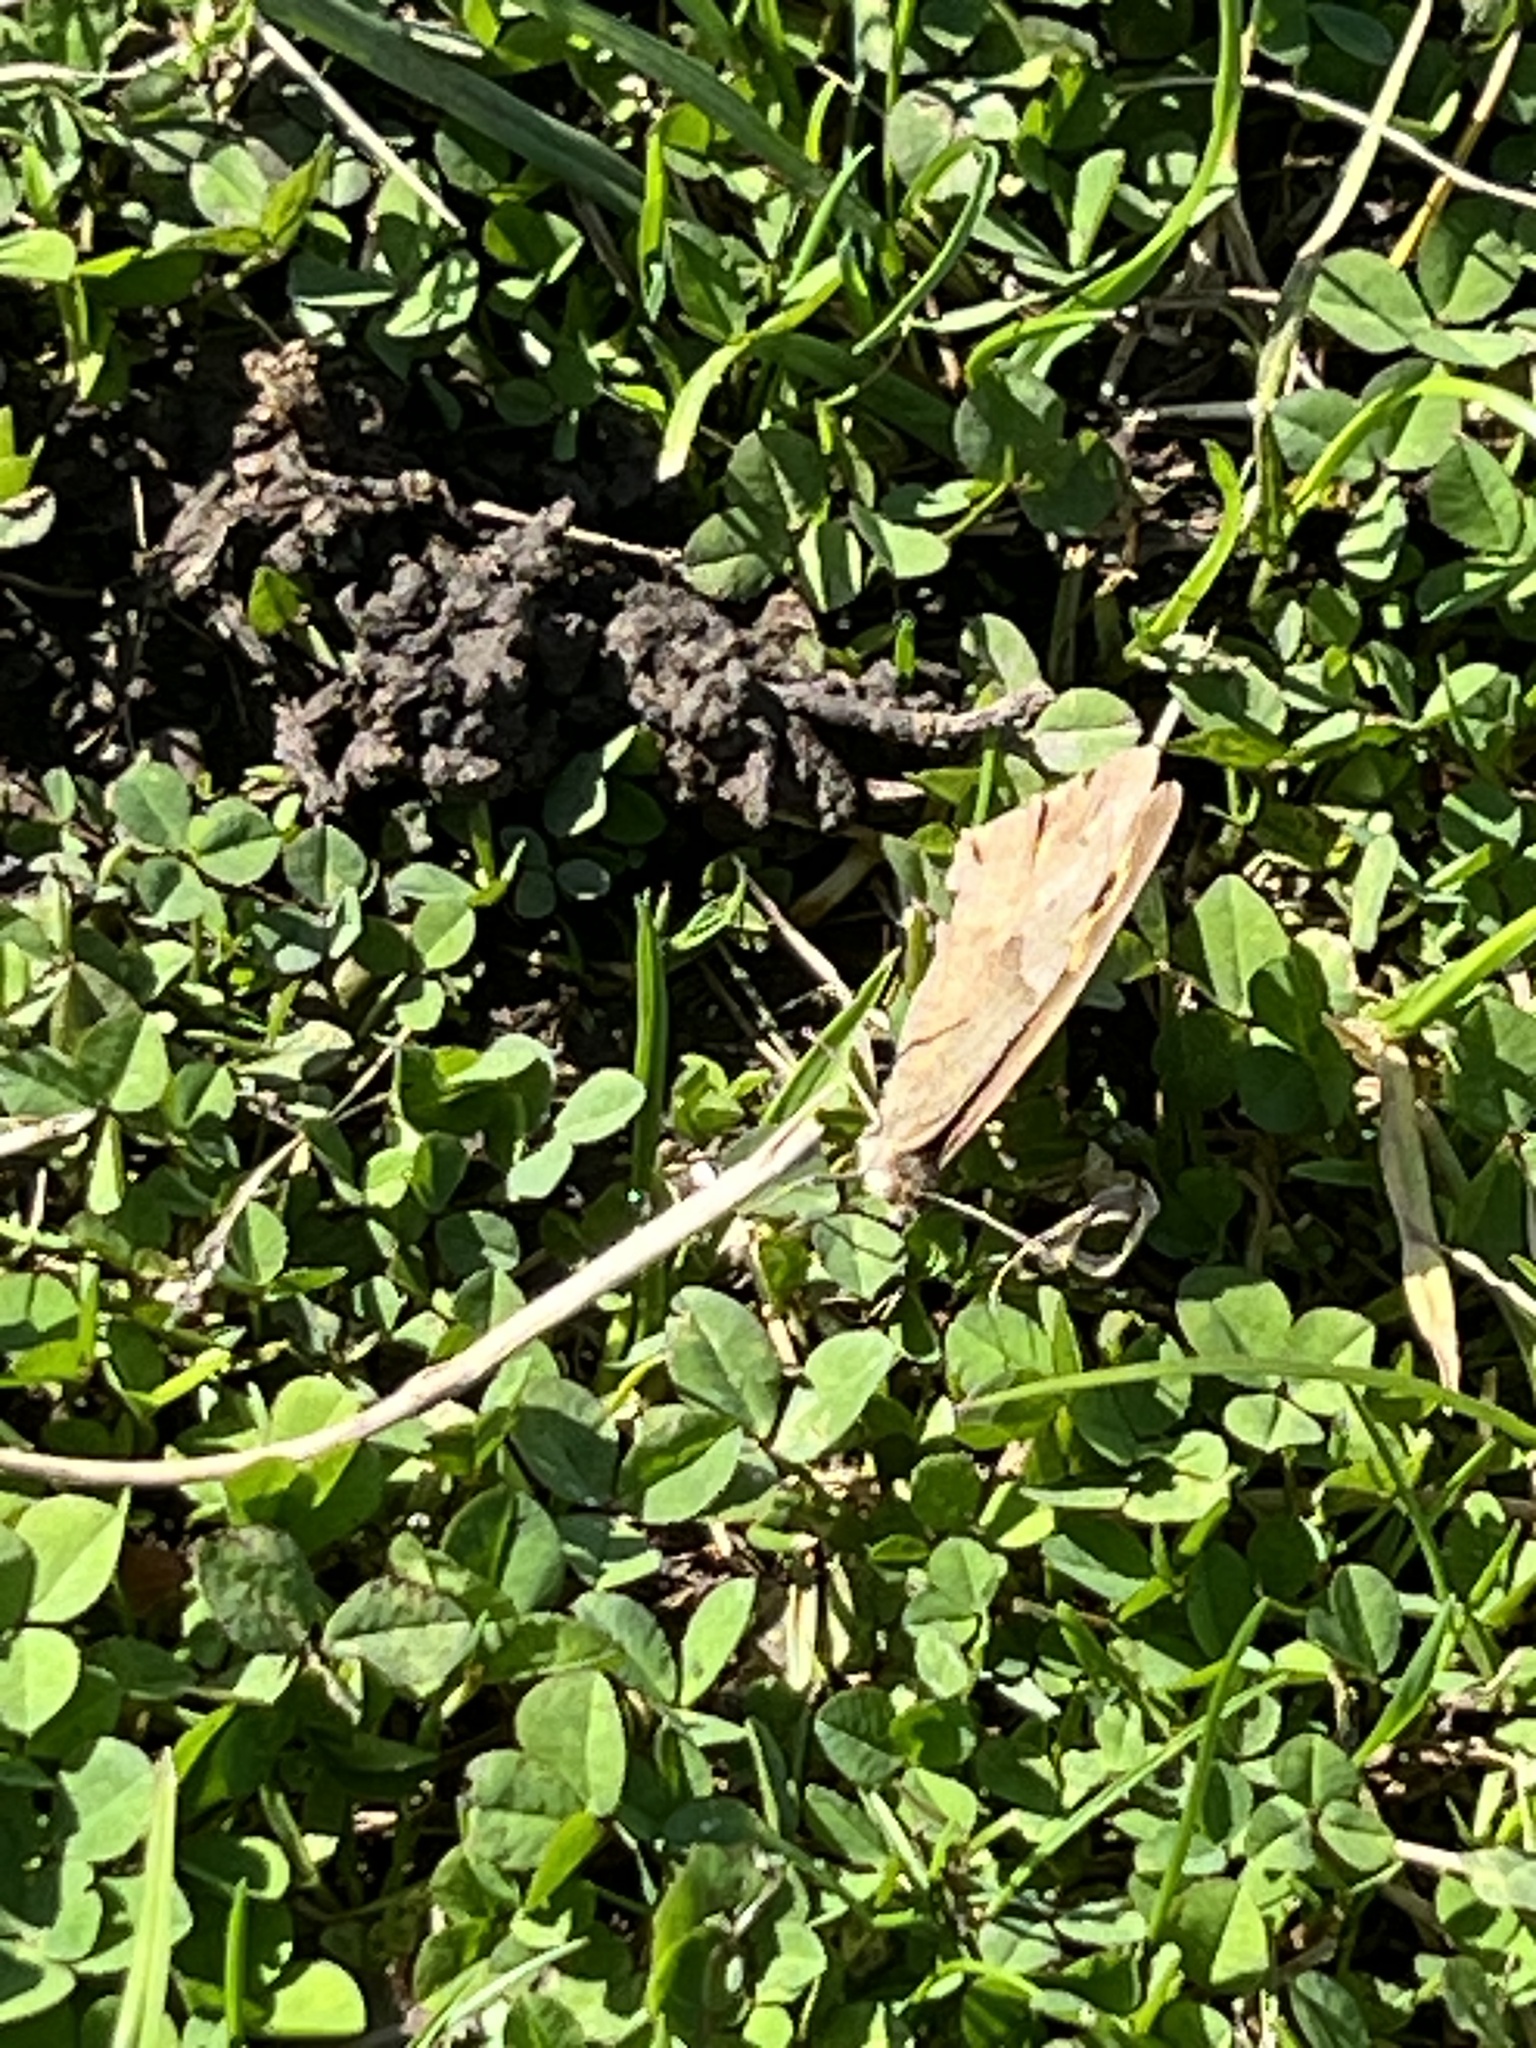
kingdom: Animalia
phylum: Arthropoda
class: Insecta
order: Lepidoptera
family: Nymphalidae
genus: Maniola
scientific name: Maniola jurtina
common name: Meadow brown
